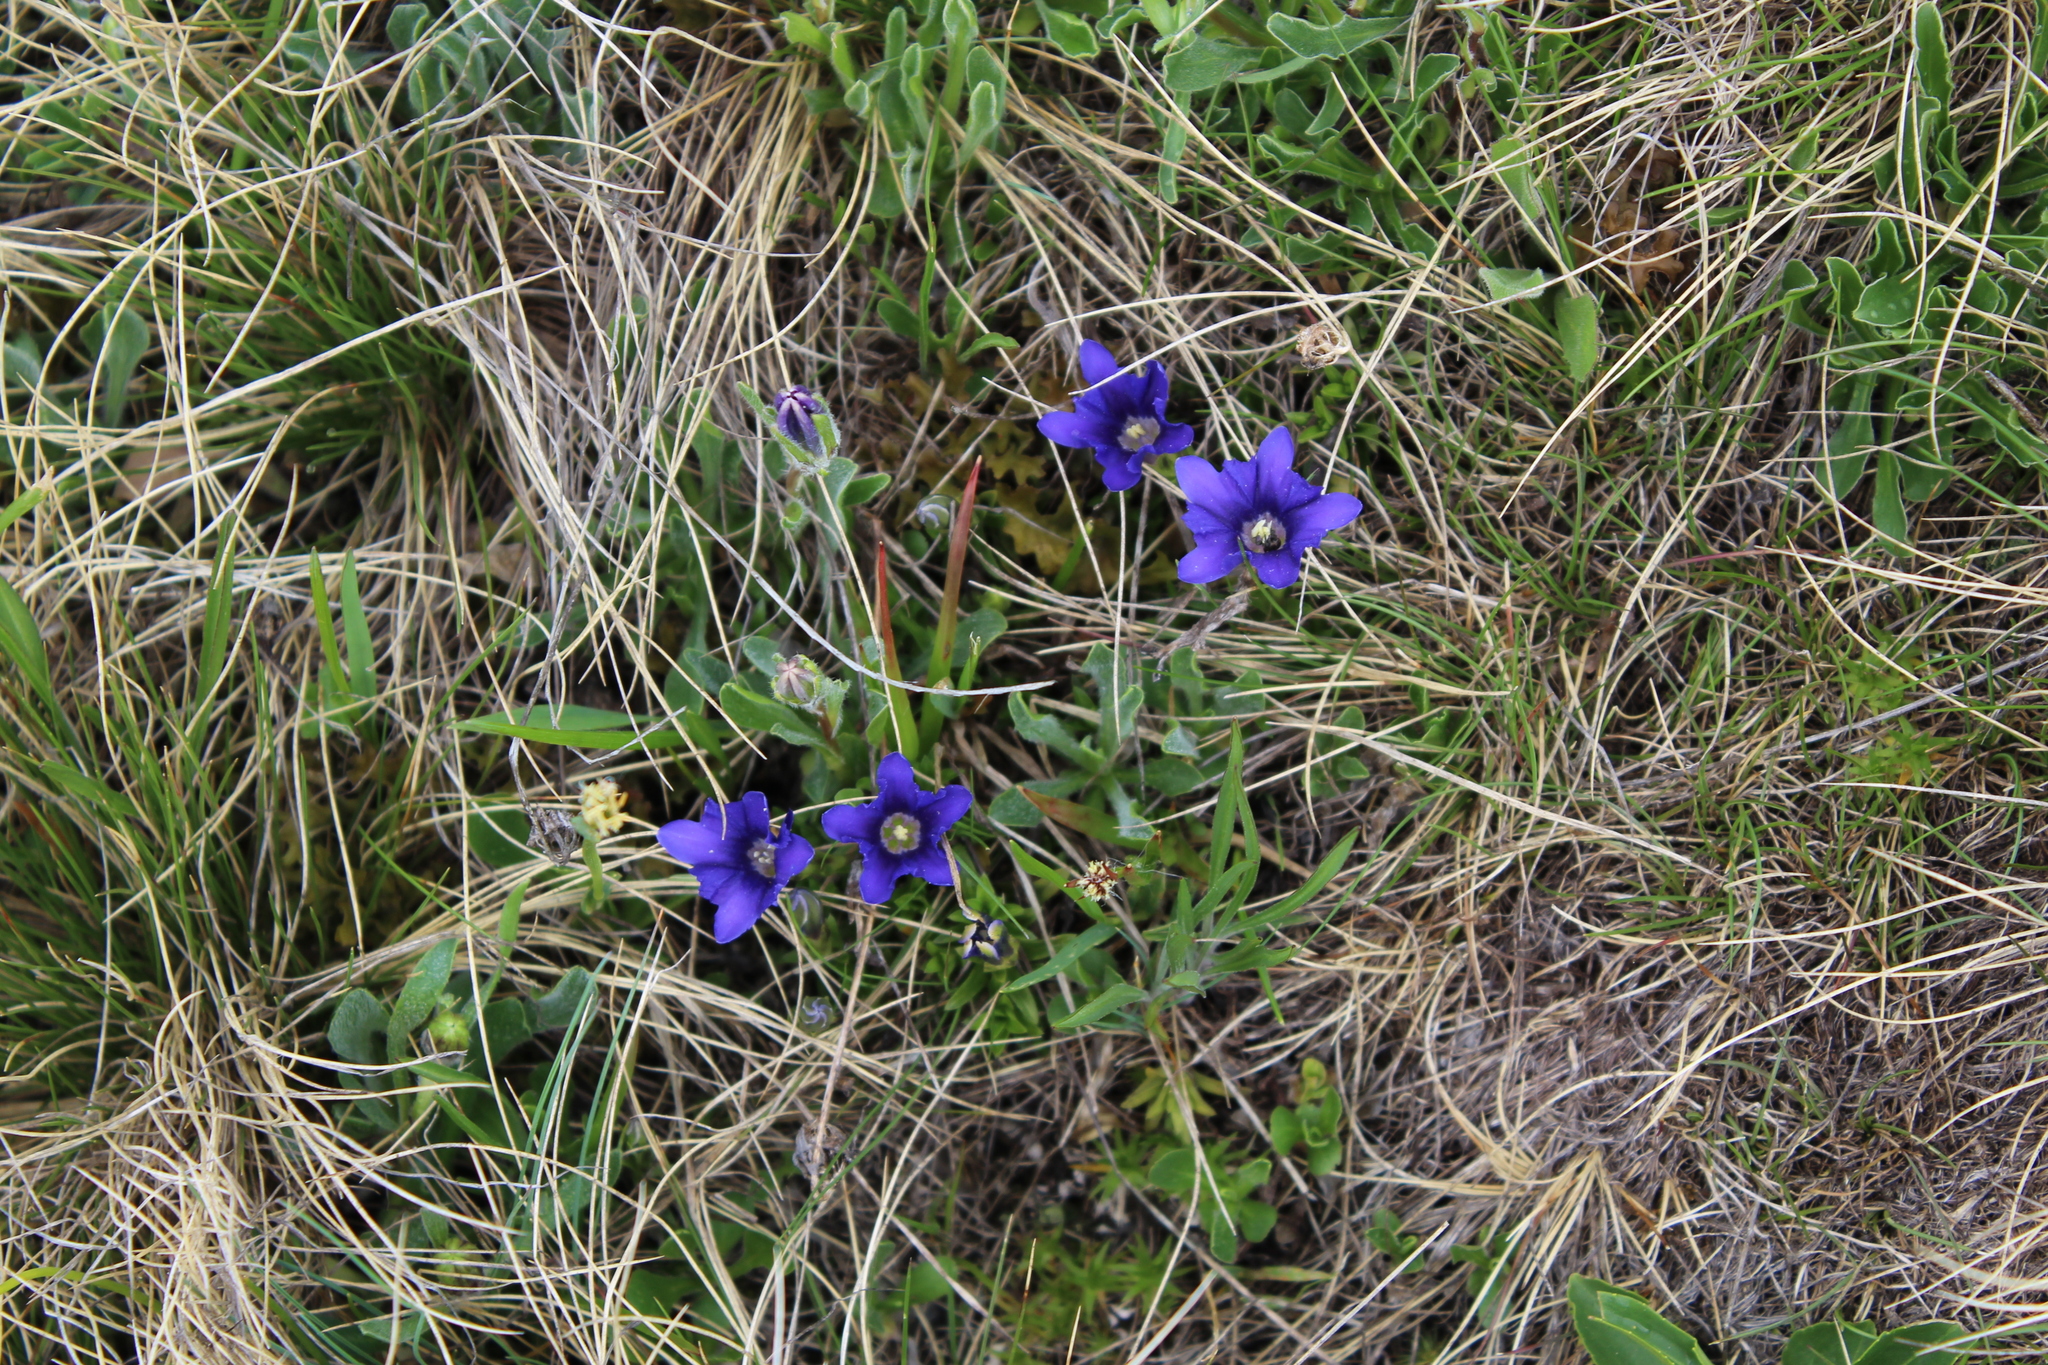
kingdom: Plantae
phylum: Tracheophyta
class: Magnoliopsida
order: Gentianales
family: Gentianaceae
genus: Gentiana
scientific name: Gentiana dshimilensis
